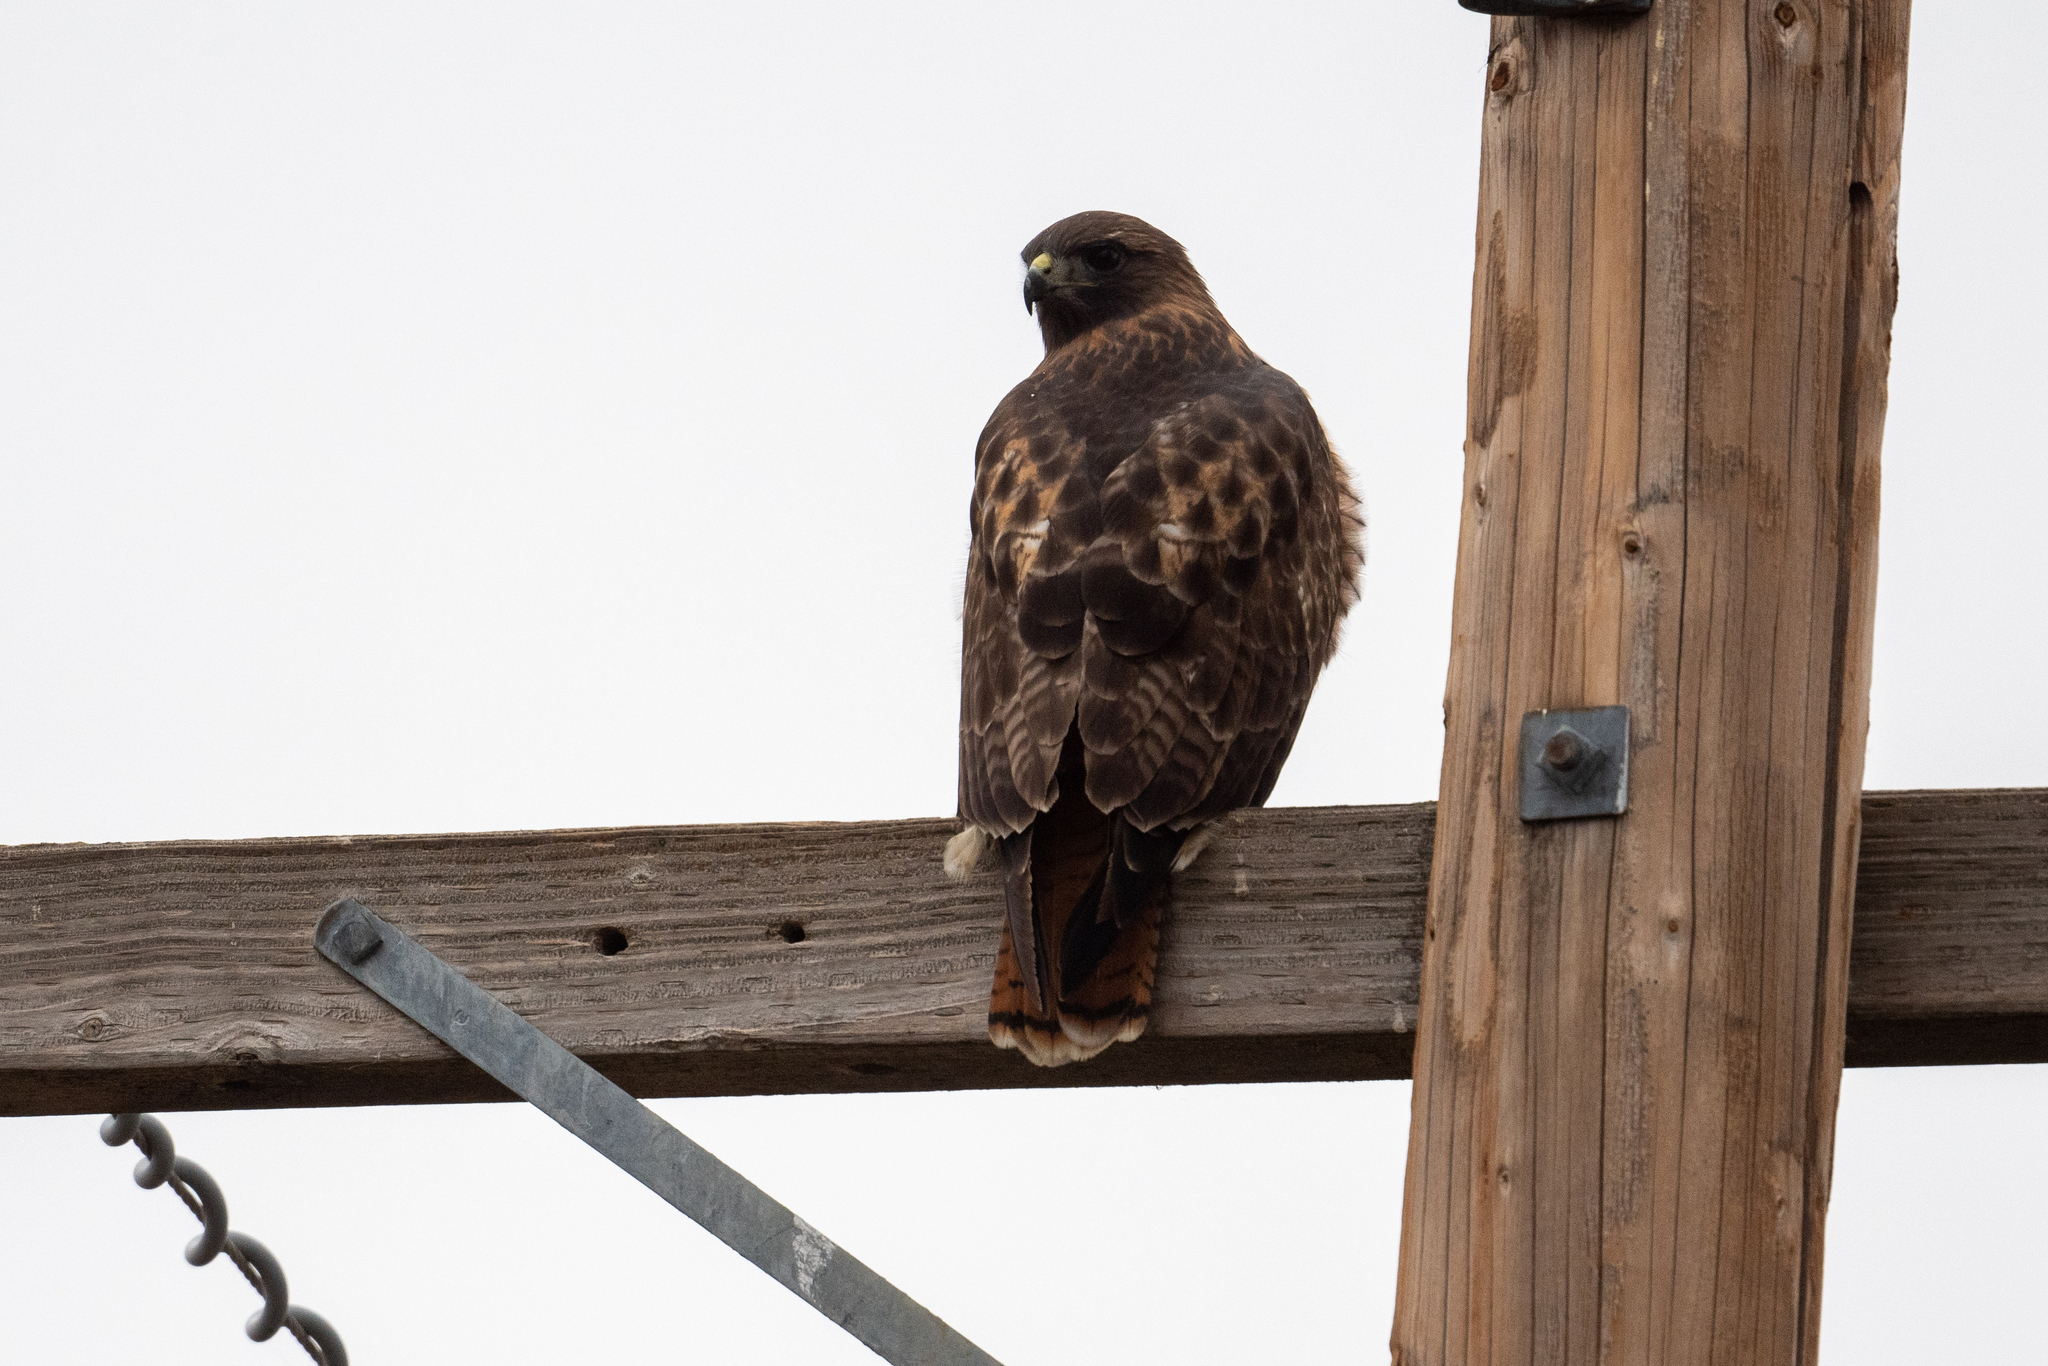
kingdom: Animalia
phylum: Chordata
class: Aves
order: Accipitriformes
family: Accipitridae
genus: Buteo
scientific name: Buteo jamaicensis
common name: Red-tailed hawk
